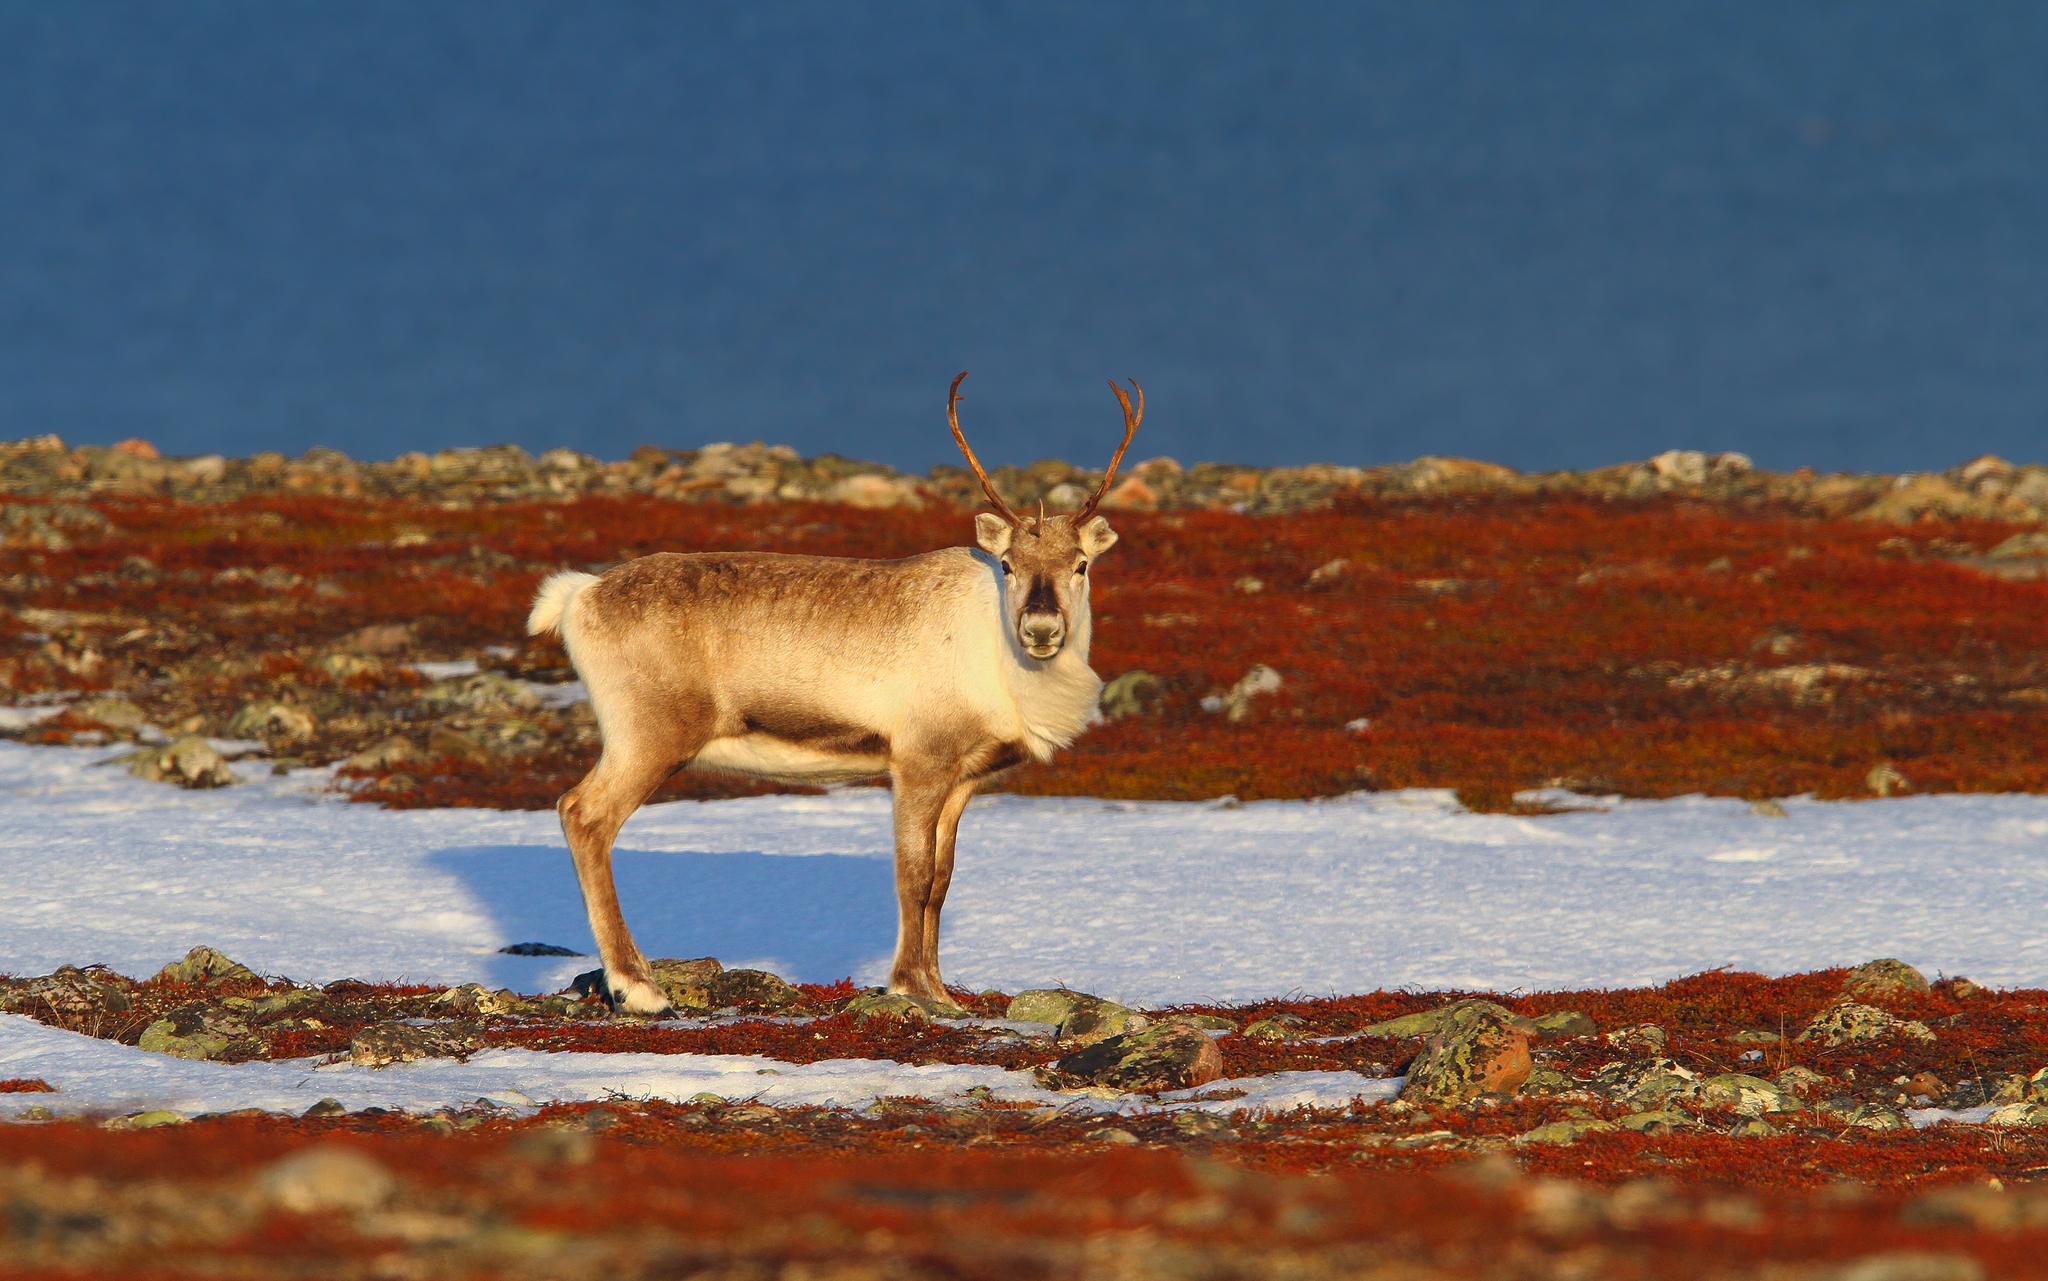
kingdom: Animalia
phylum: Chordata
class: Mammalia
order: Artiodactyla
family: Cervidae
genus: Rangifer
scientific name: Rangifer tarandus
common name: Reindeer
